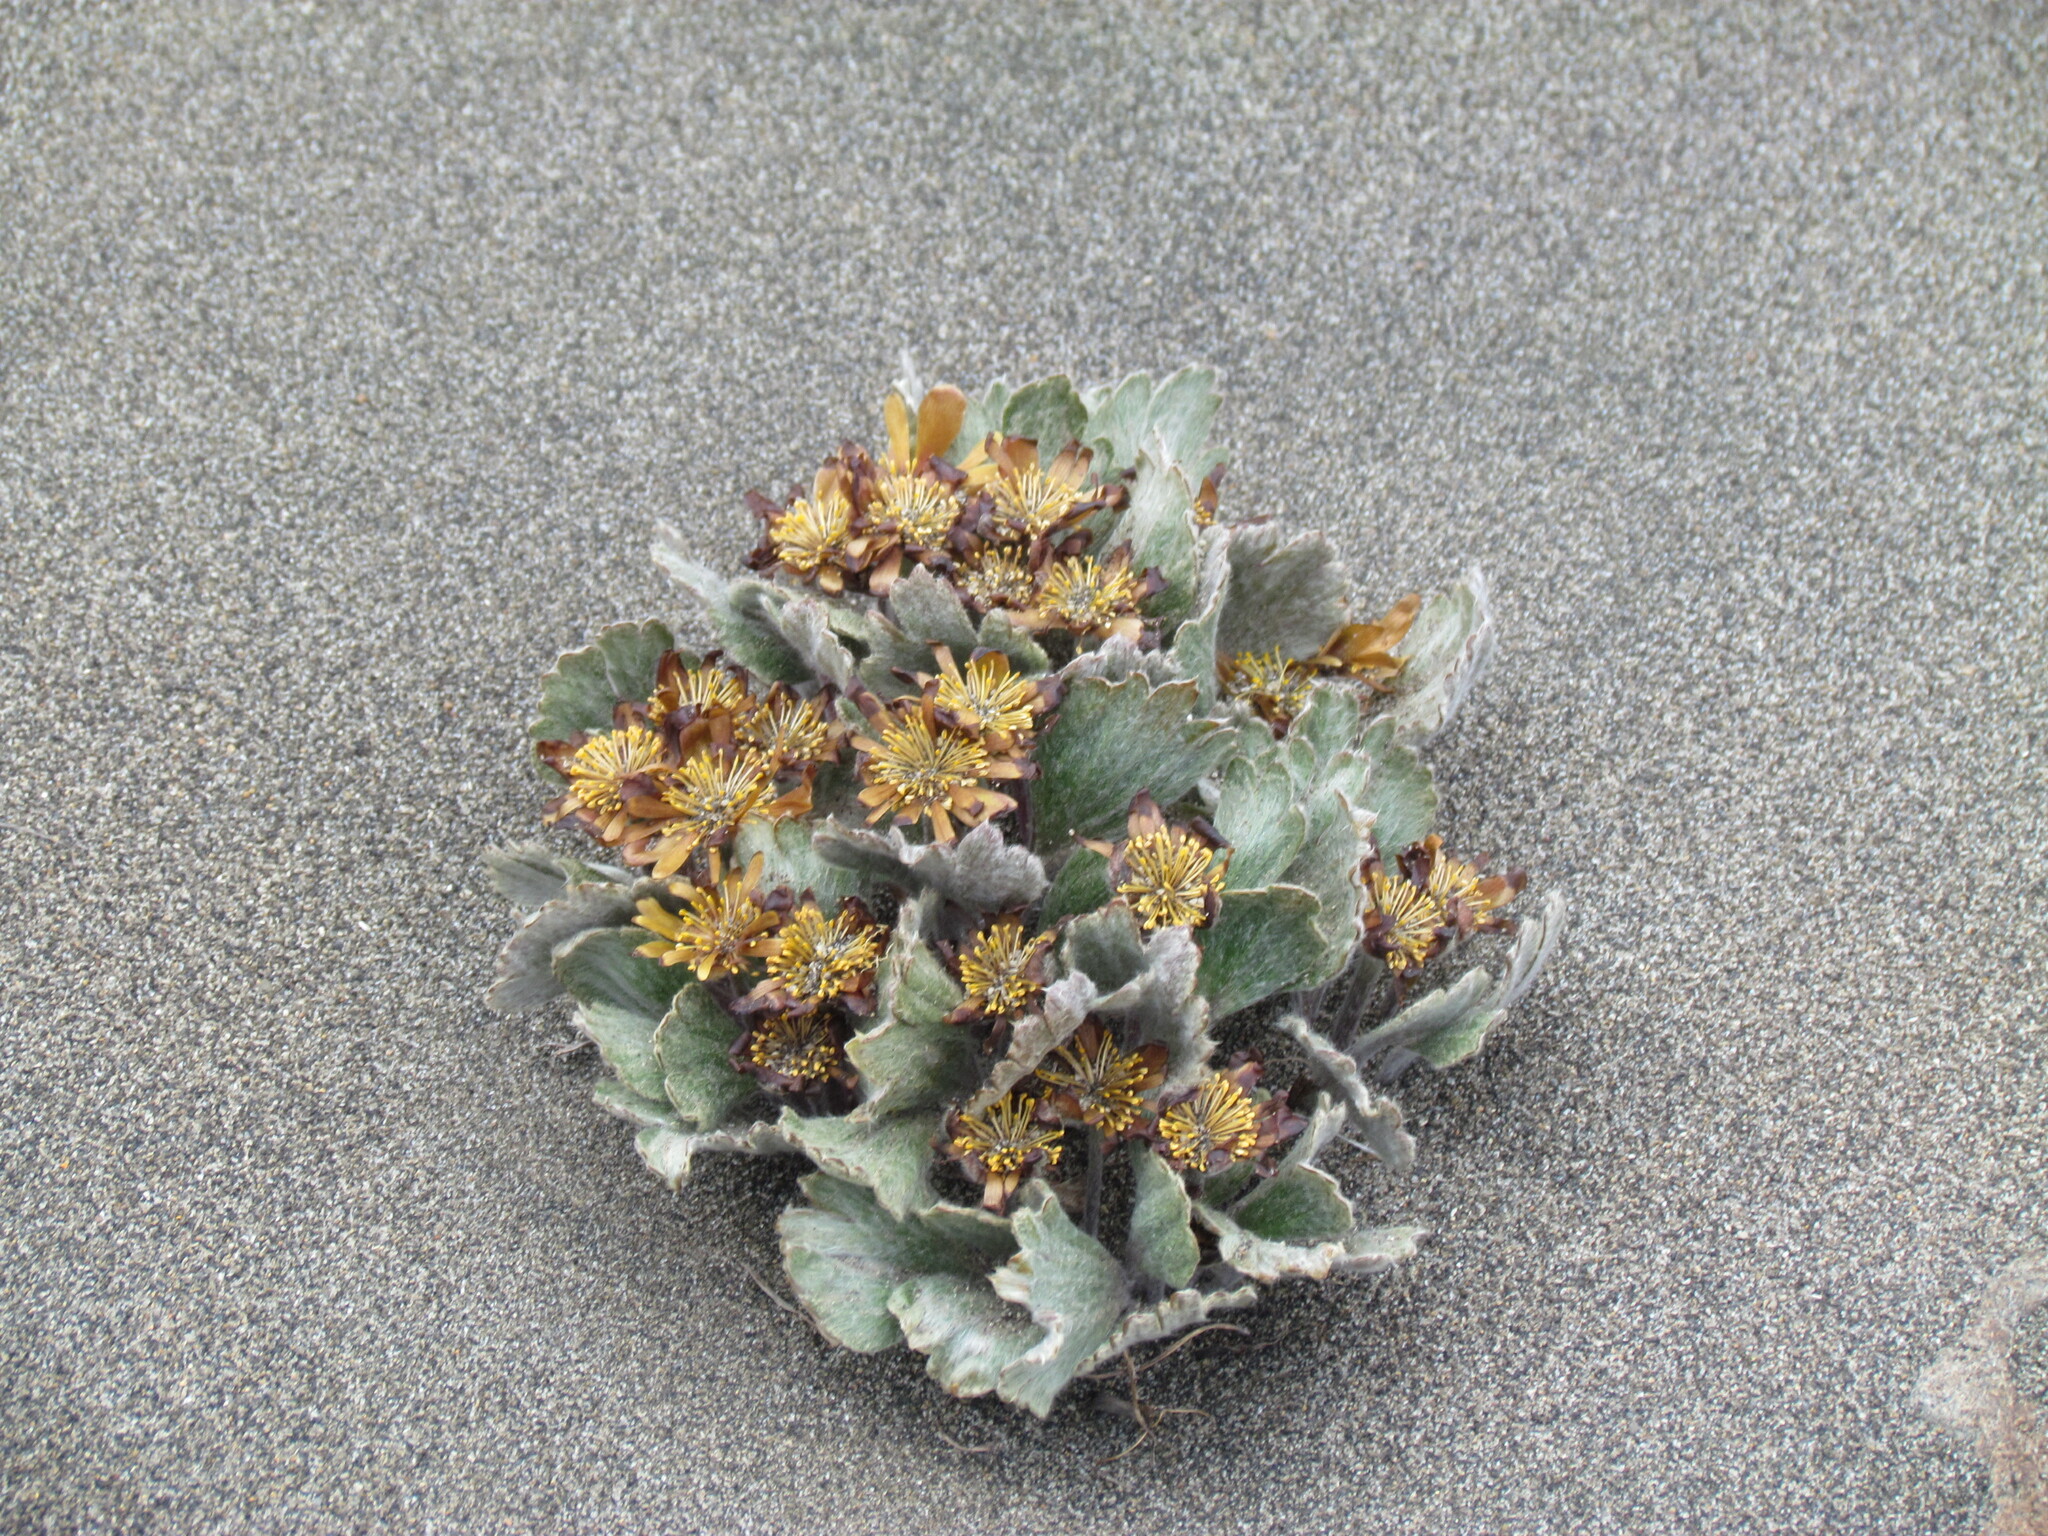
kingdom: Plantae
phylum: Tracheophyta
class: Magnoliopsida
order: Ranunculales
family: Ranunculaceae
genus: Hamadryas
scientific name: Hamadryas kingii
